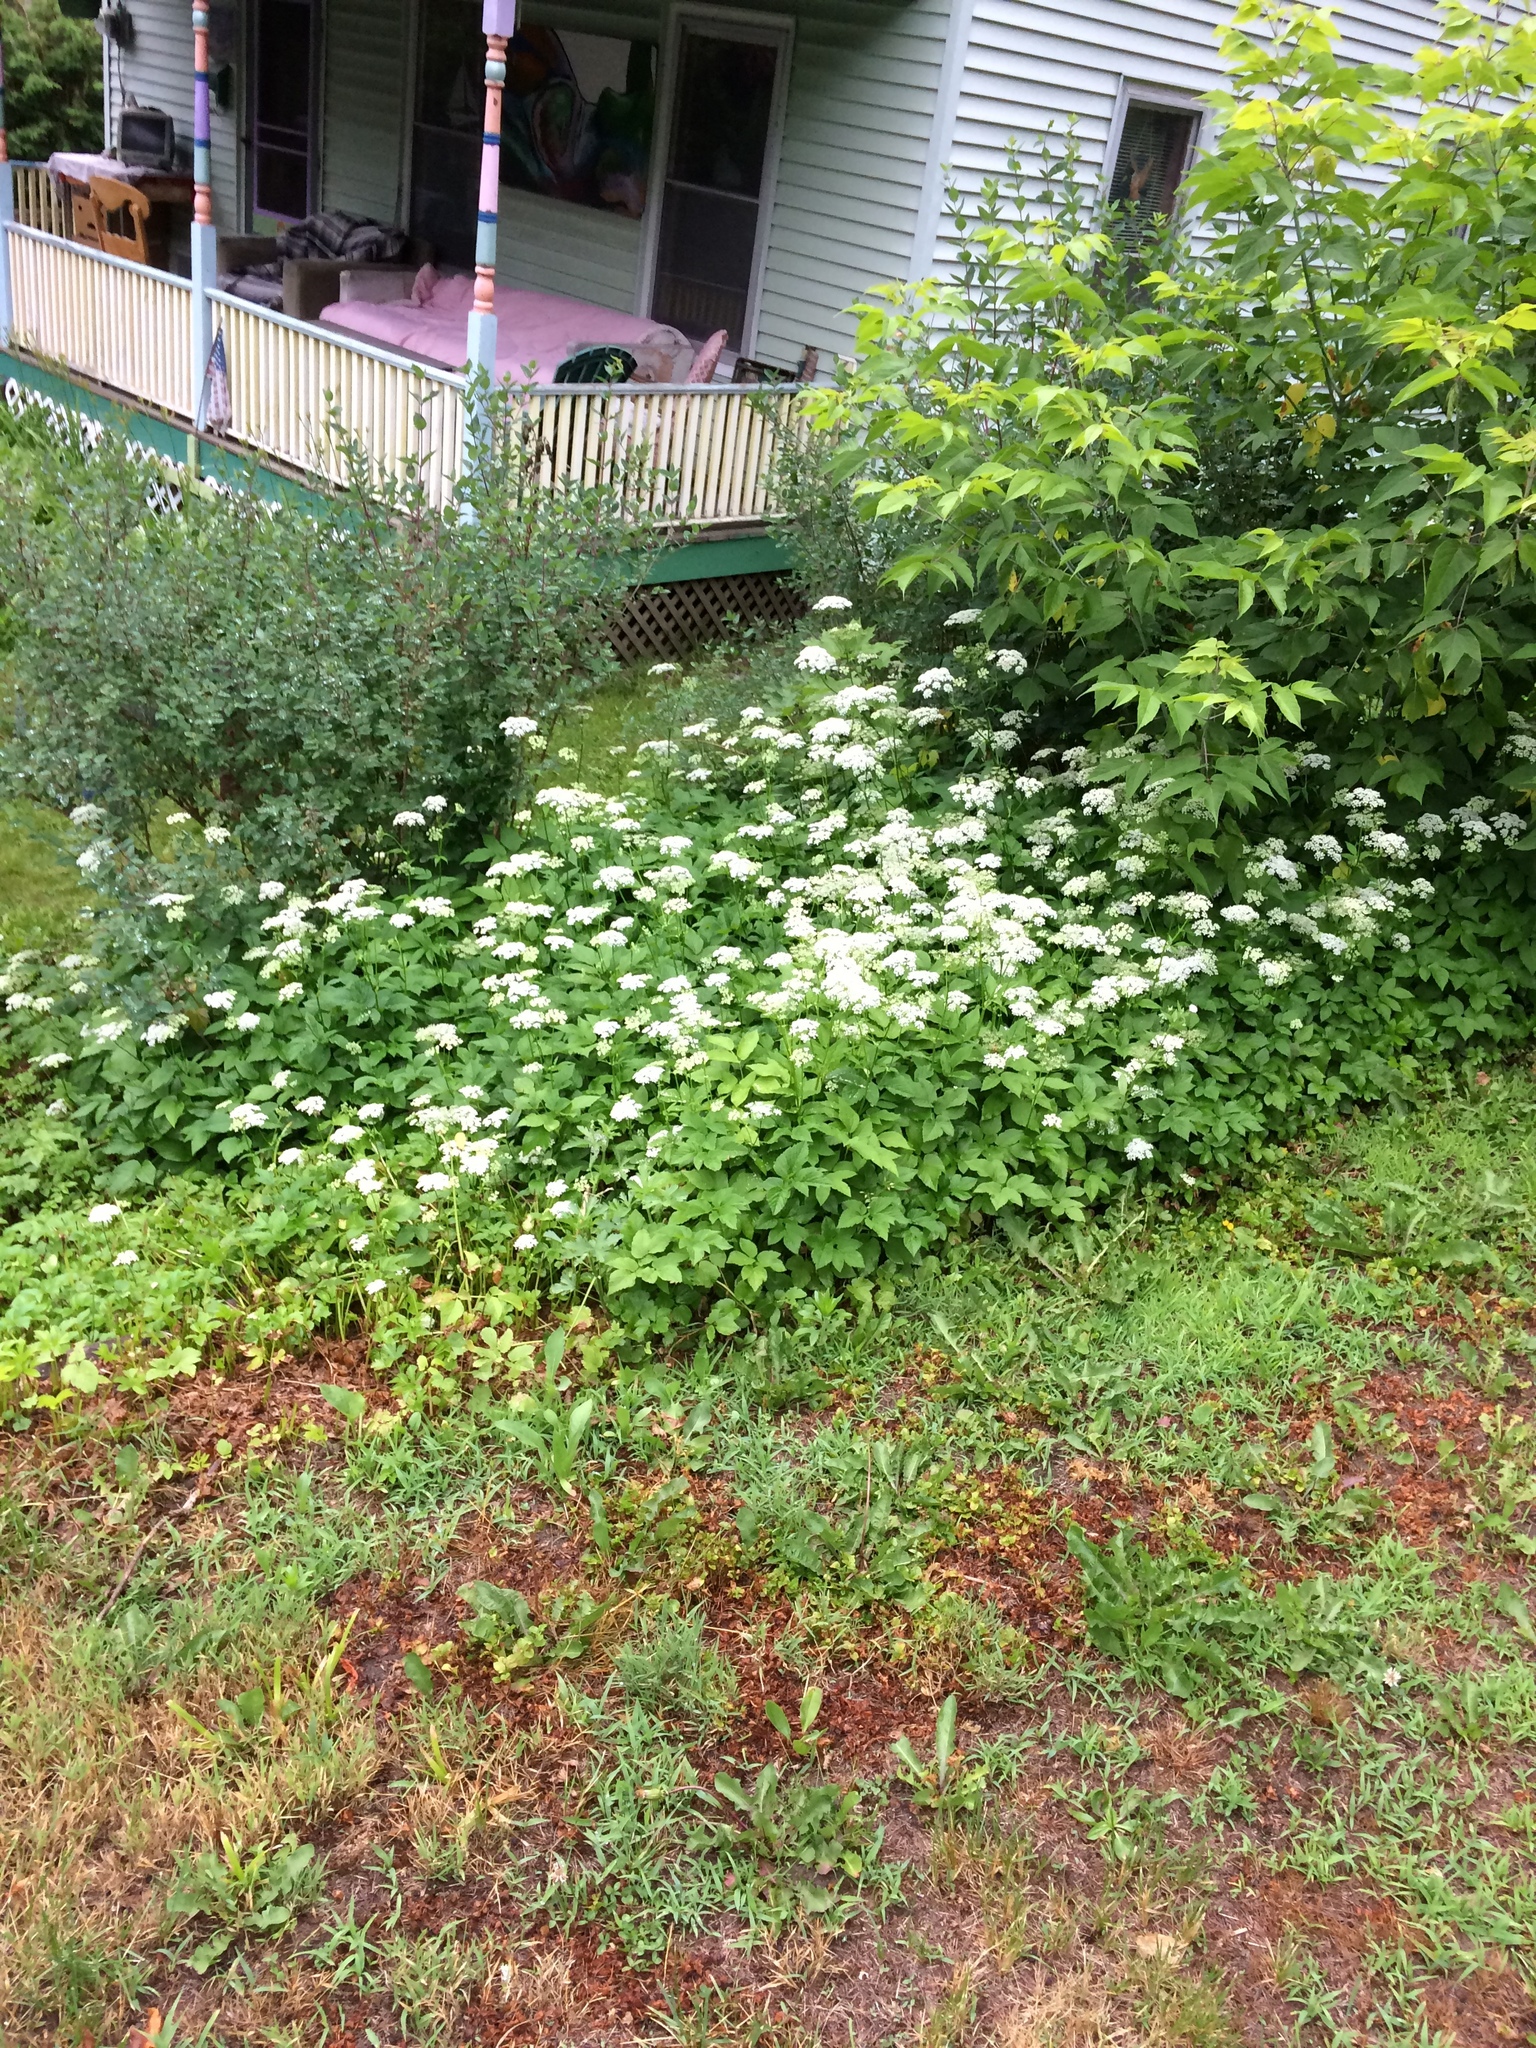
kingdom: Plantae
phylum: Tracheophyta
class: Magnoliopsida
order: Apiales
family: Apiaceae
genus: Aegopodium
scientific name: Aegopodium podagraria
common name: Ground-elder
